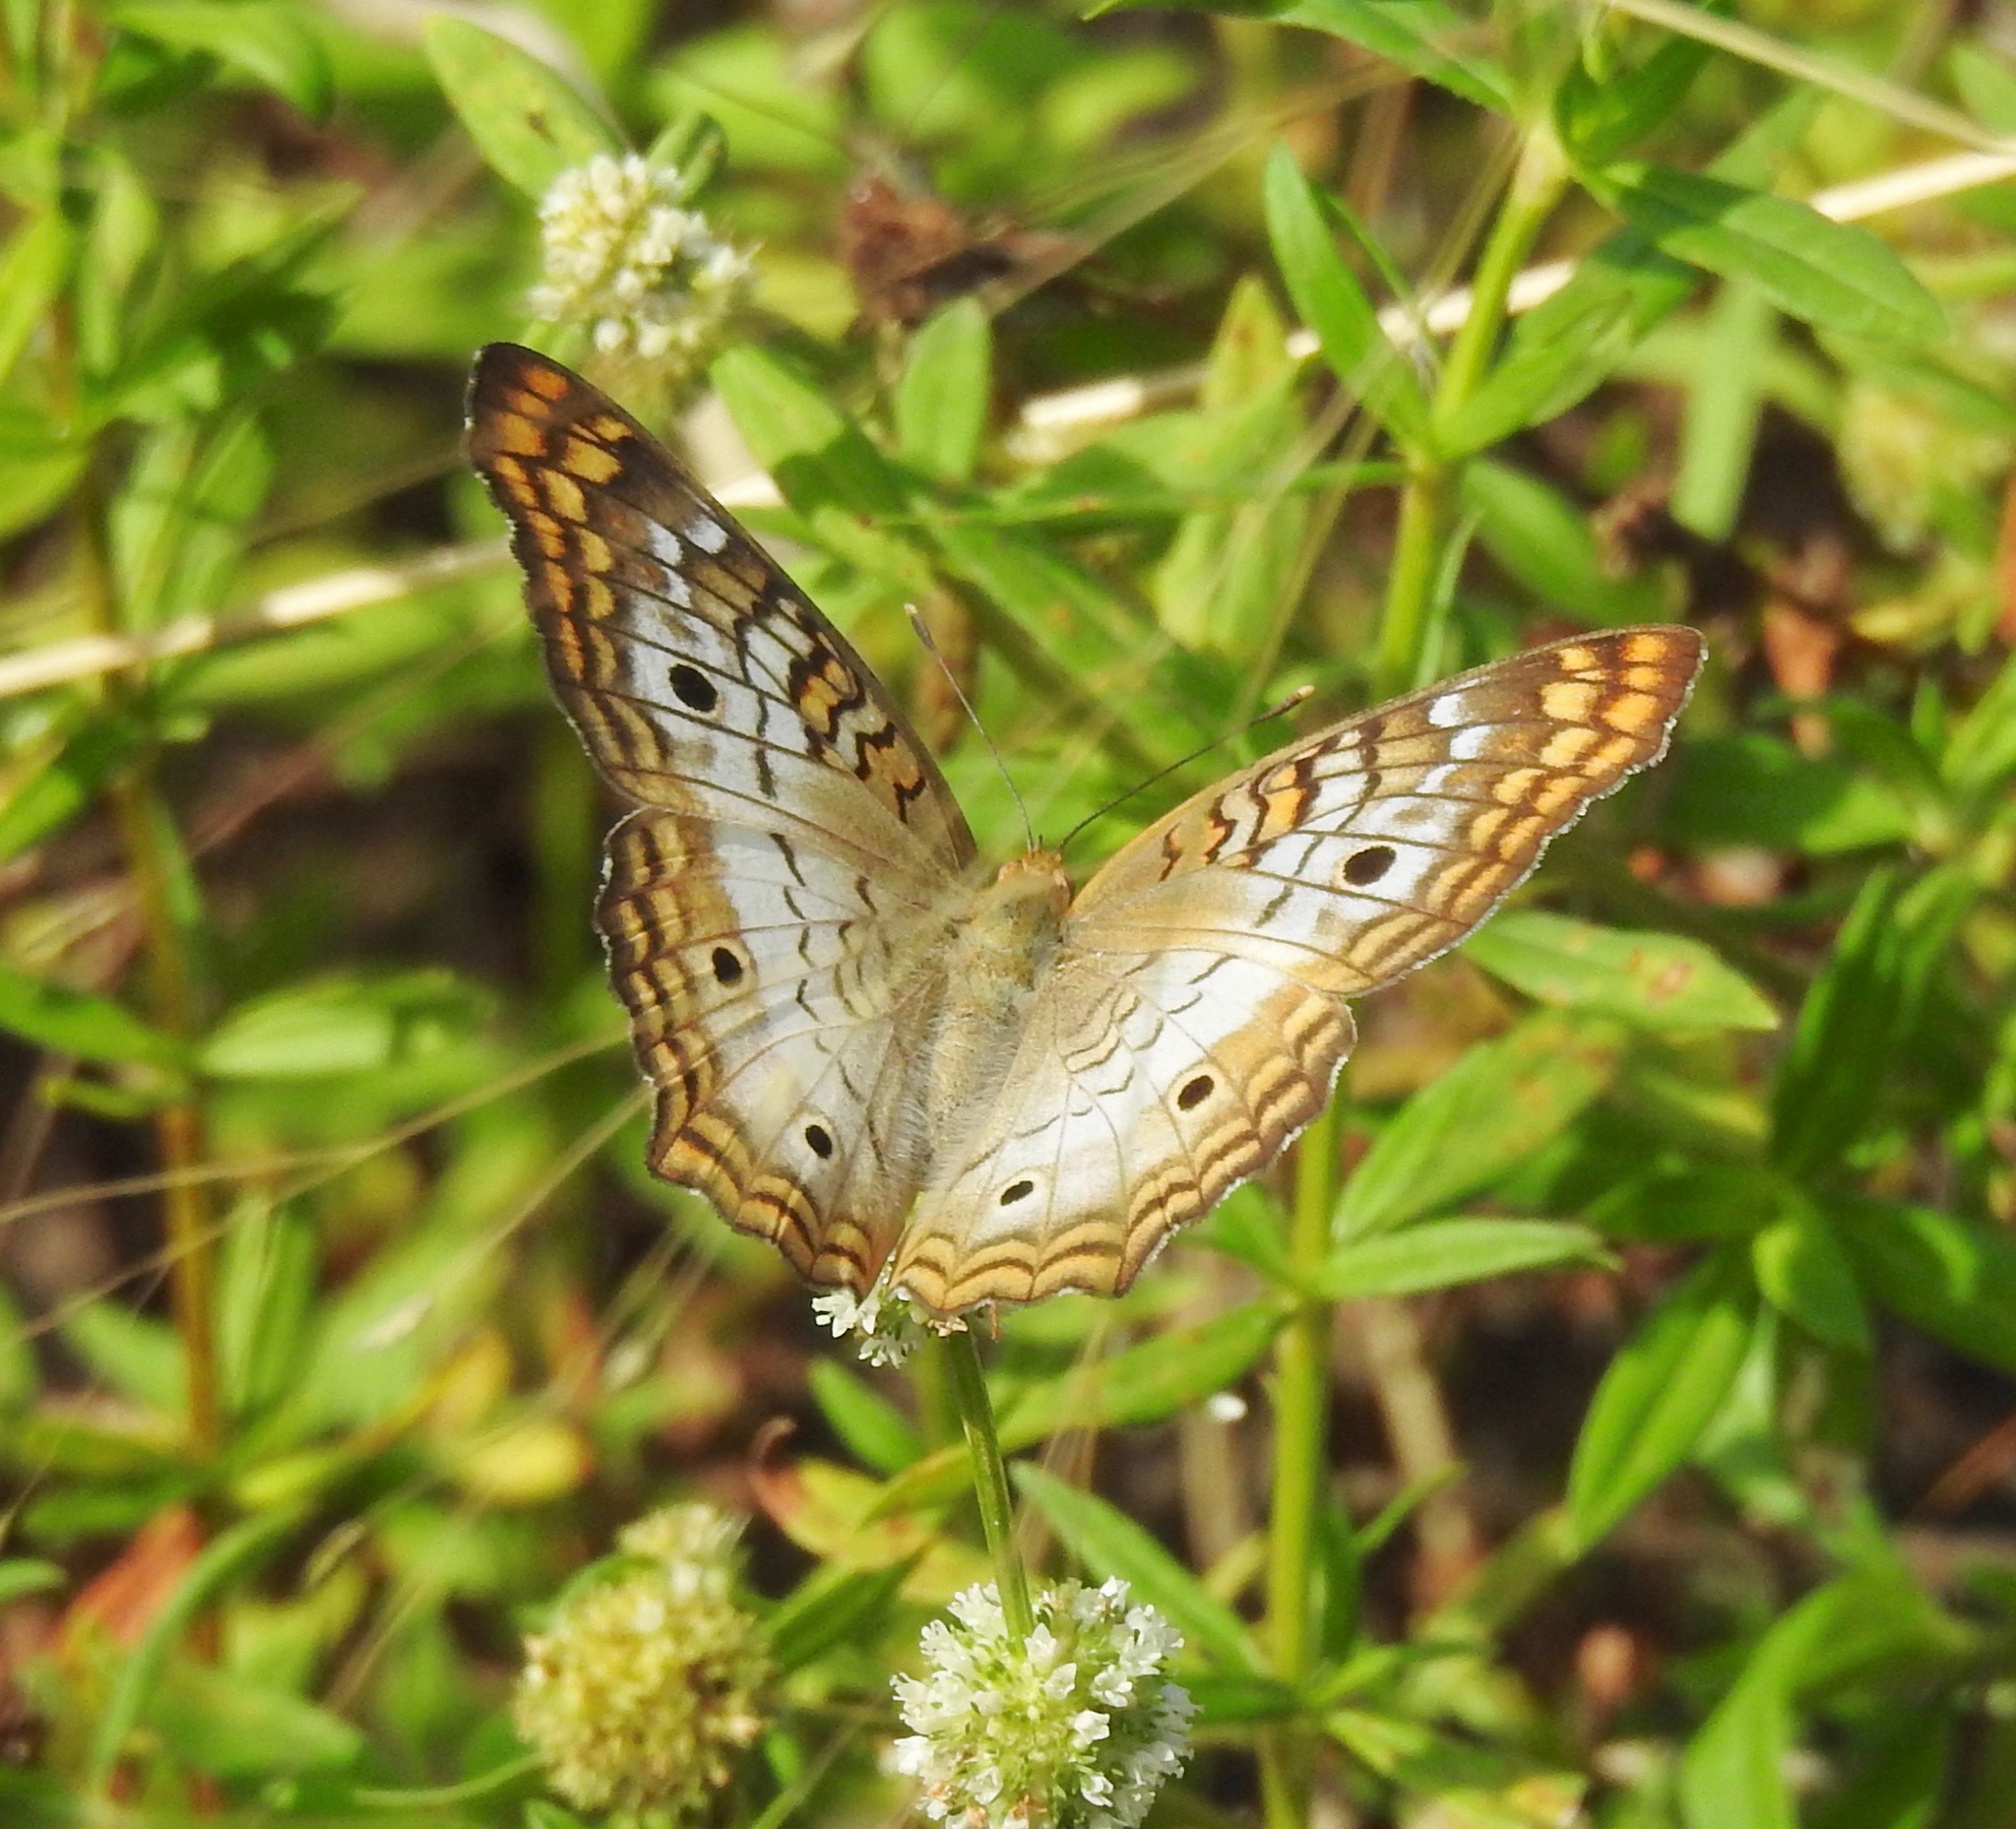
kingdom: Animalia
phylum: Arthropoda
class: Insecta
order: Lepidoptera
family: Nymphalidae
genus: Anartia
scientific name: Anartia jatrophae
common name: White peacock
